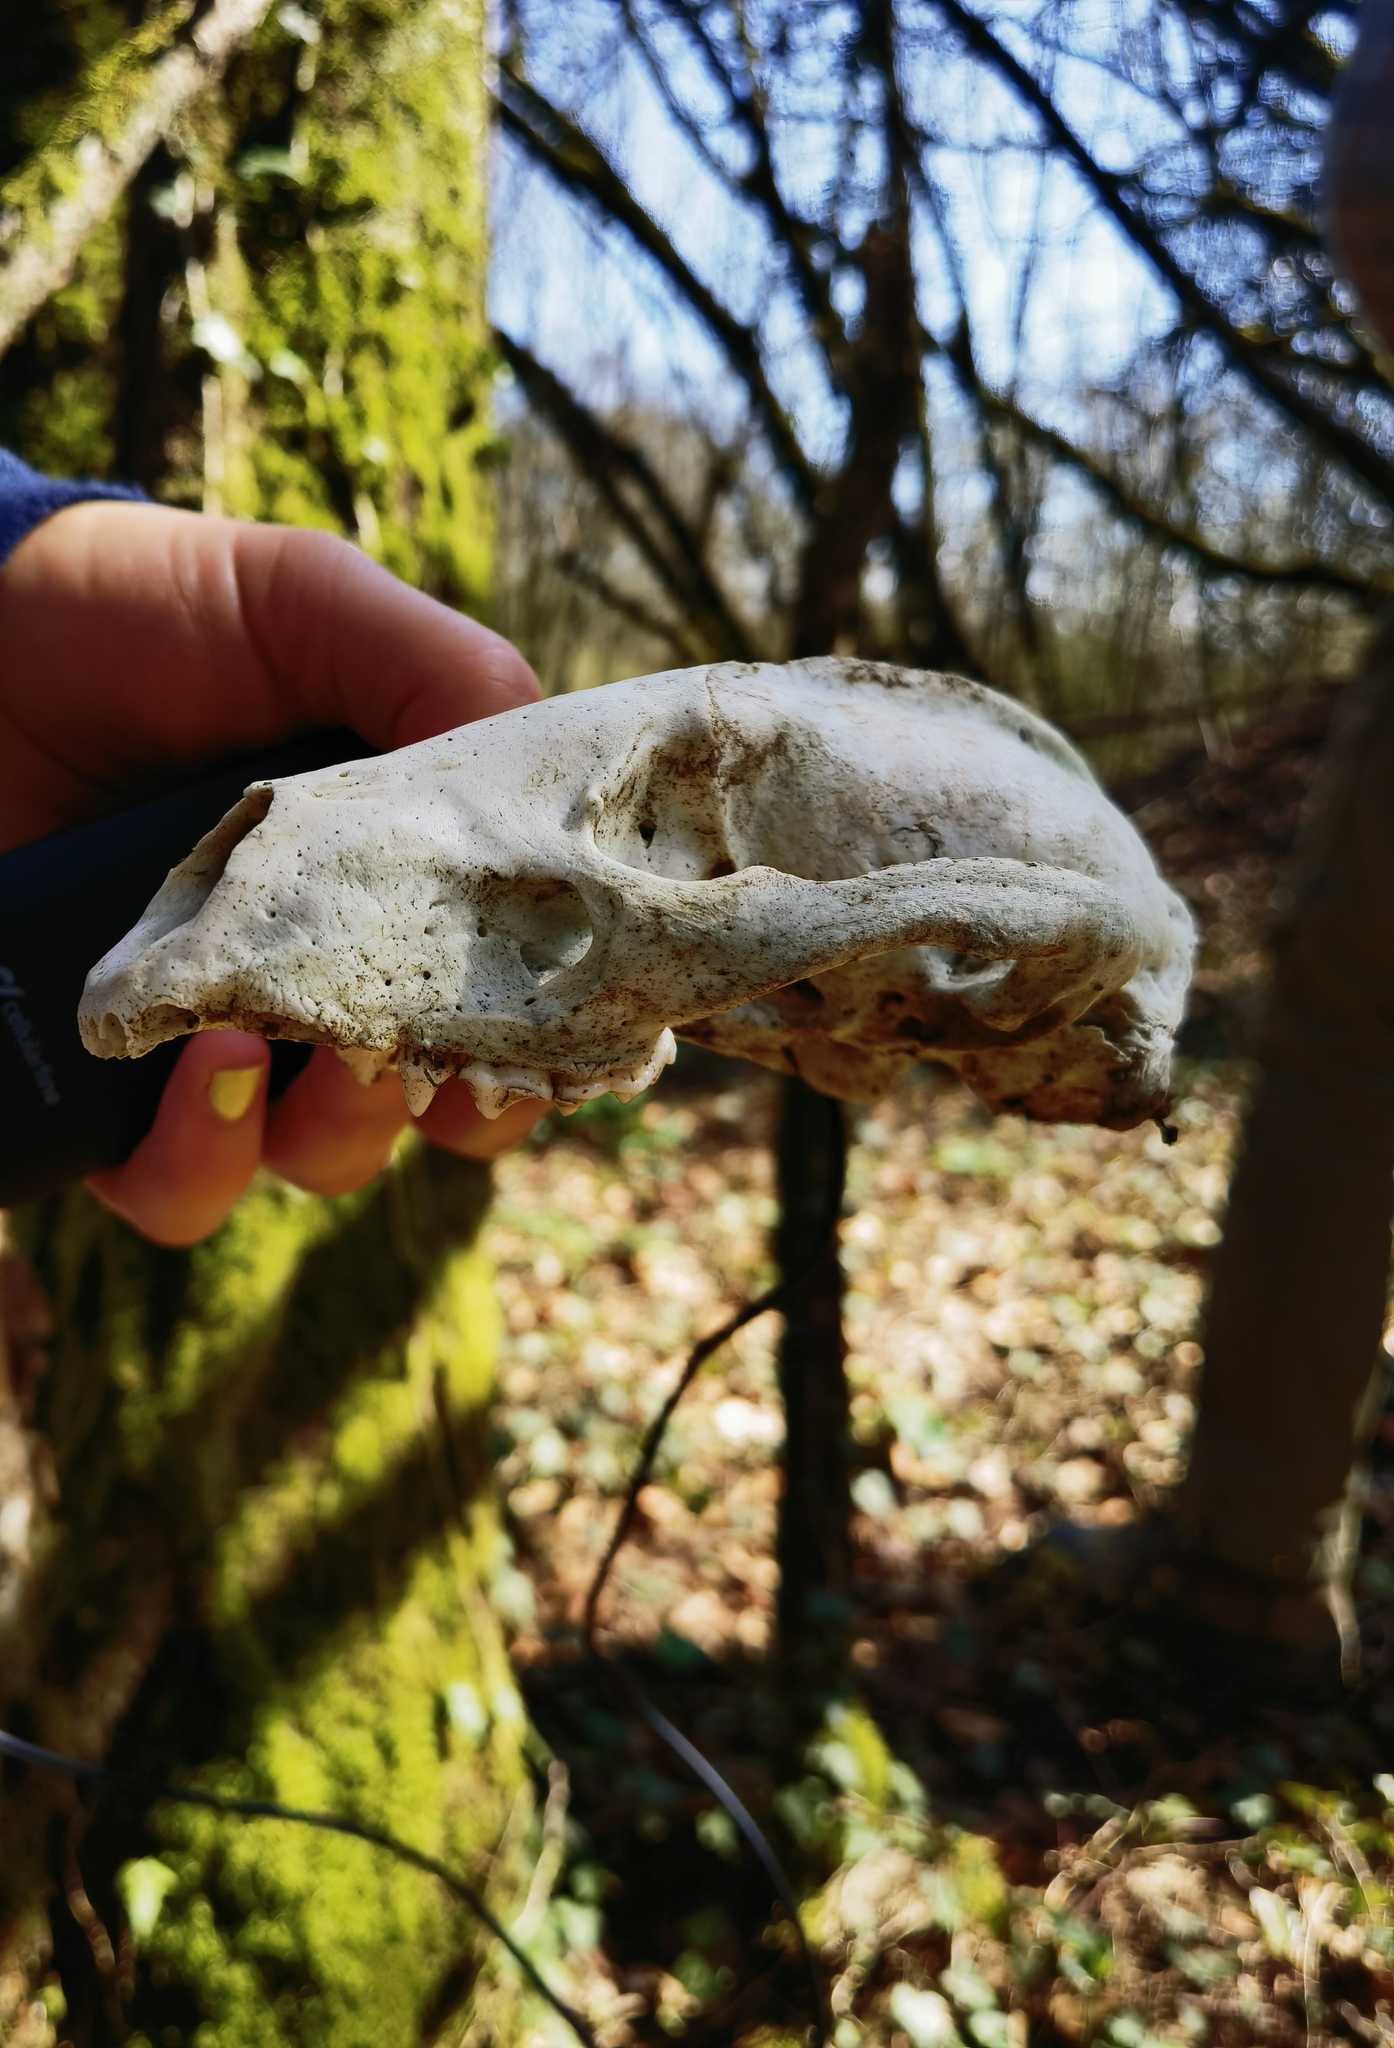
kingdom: Animalia
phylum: Chordata
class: Mammalia
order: Carnivora
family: Mustelidae
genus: Meles
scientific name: Meles meles
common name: Eurasian badger
